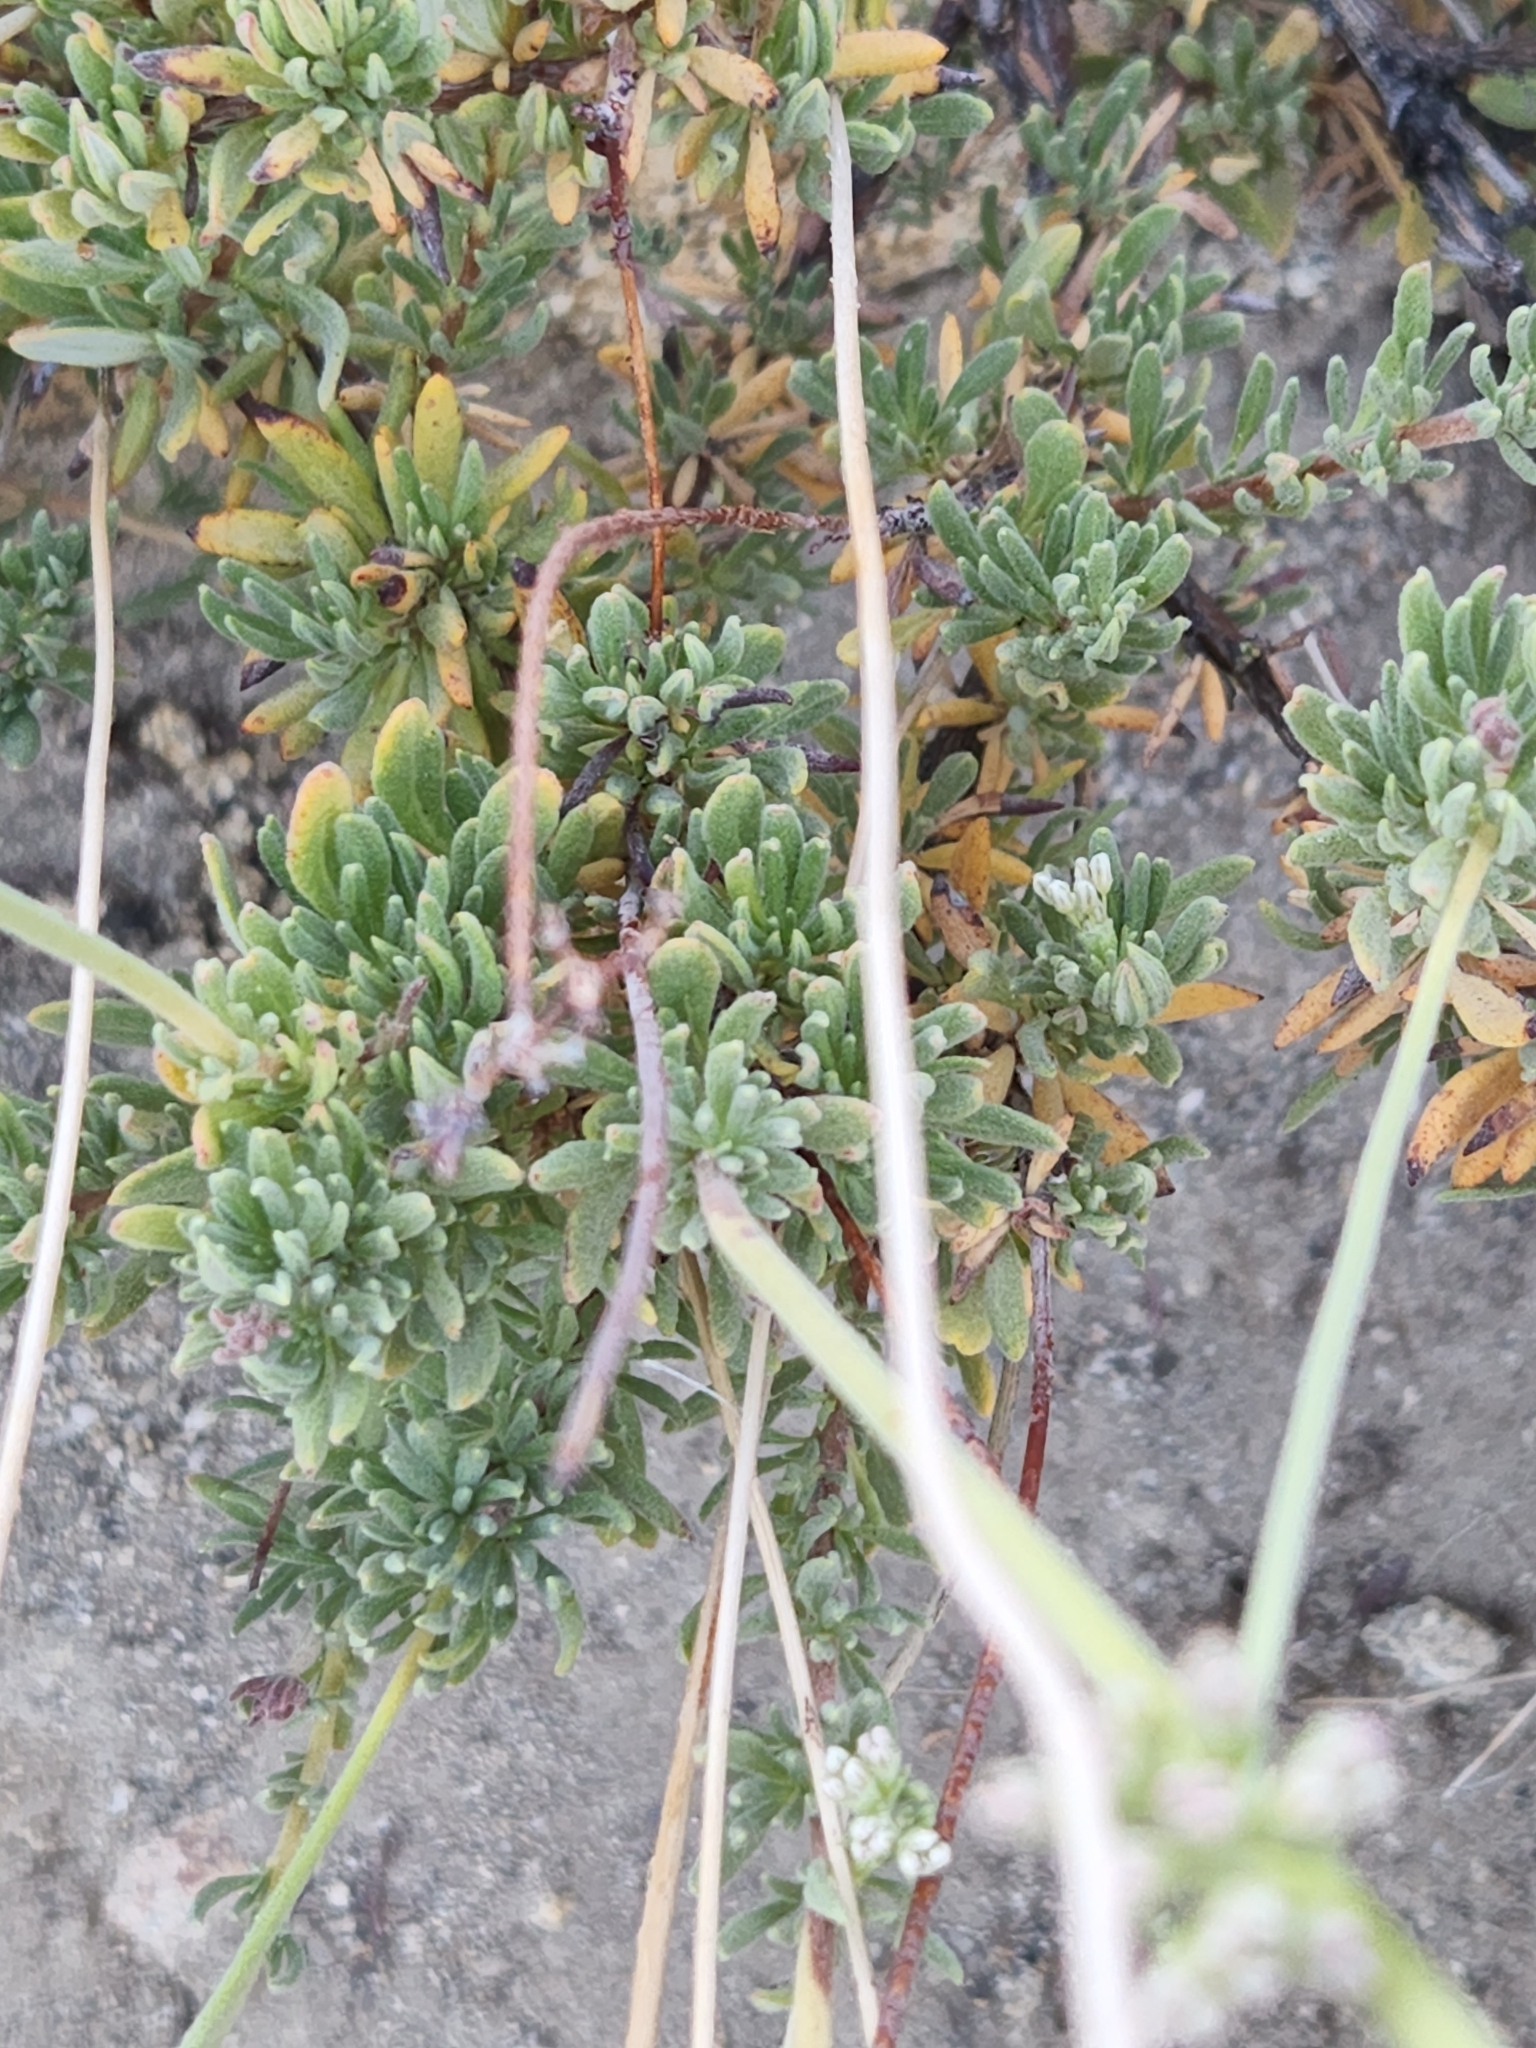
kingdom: Plantae
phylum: Tracheophyta
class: Magnoliopsida
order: Caryophyllales
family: Polygonaceae
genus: Eriogonum
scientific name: Eriogonum fasciculatum
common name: California wild buckwheat
